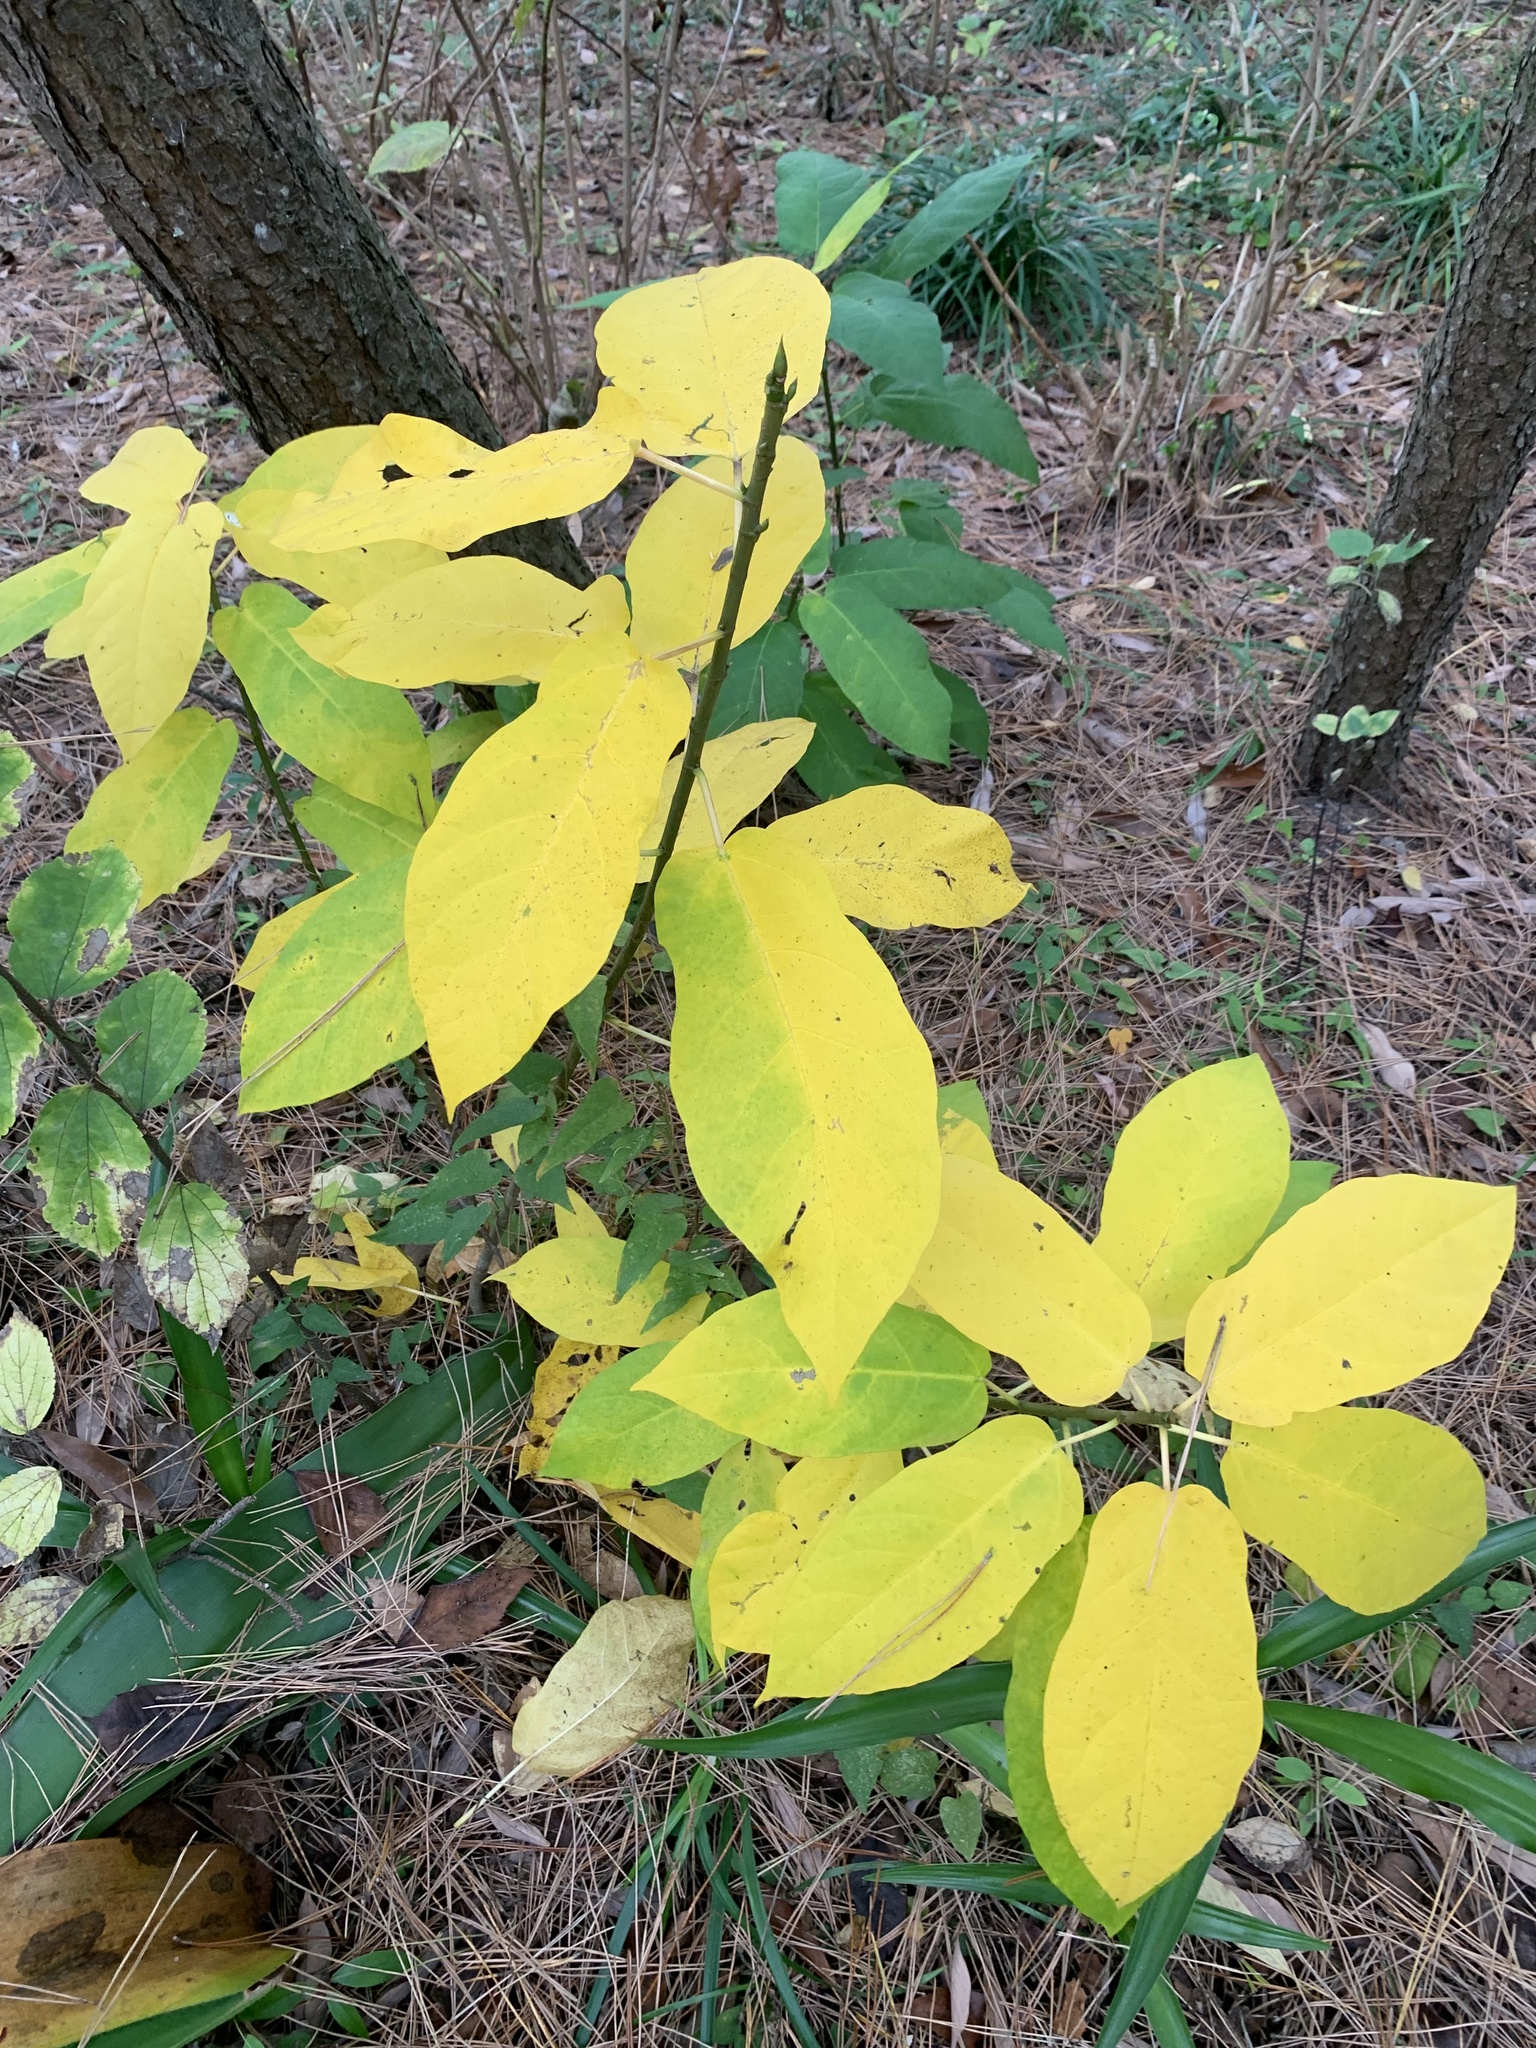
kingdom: Plantae
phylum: Tracheophyta
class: Magnoliopsida
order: Rosales
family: Moraceae
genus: Ficus
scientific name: Ficus erecta
